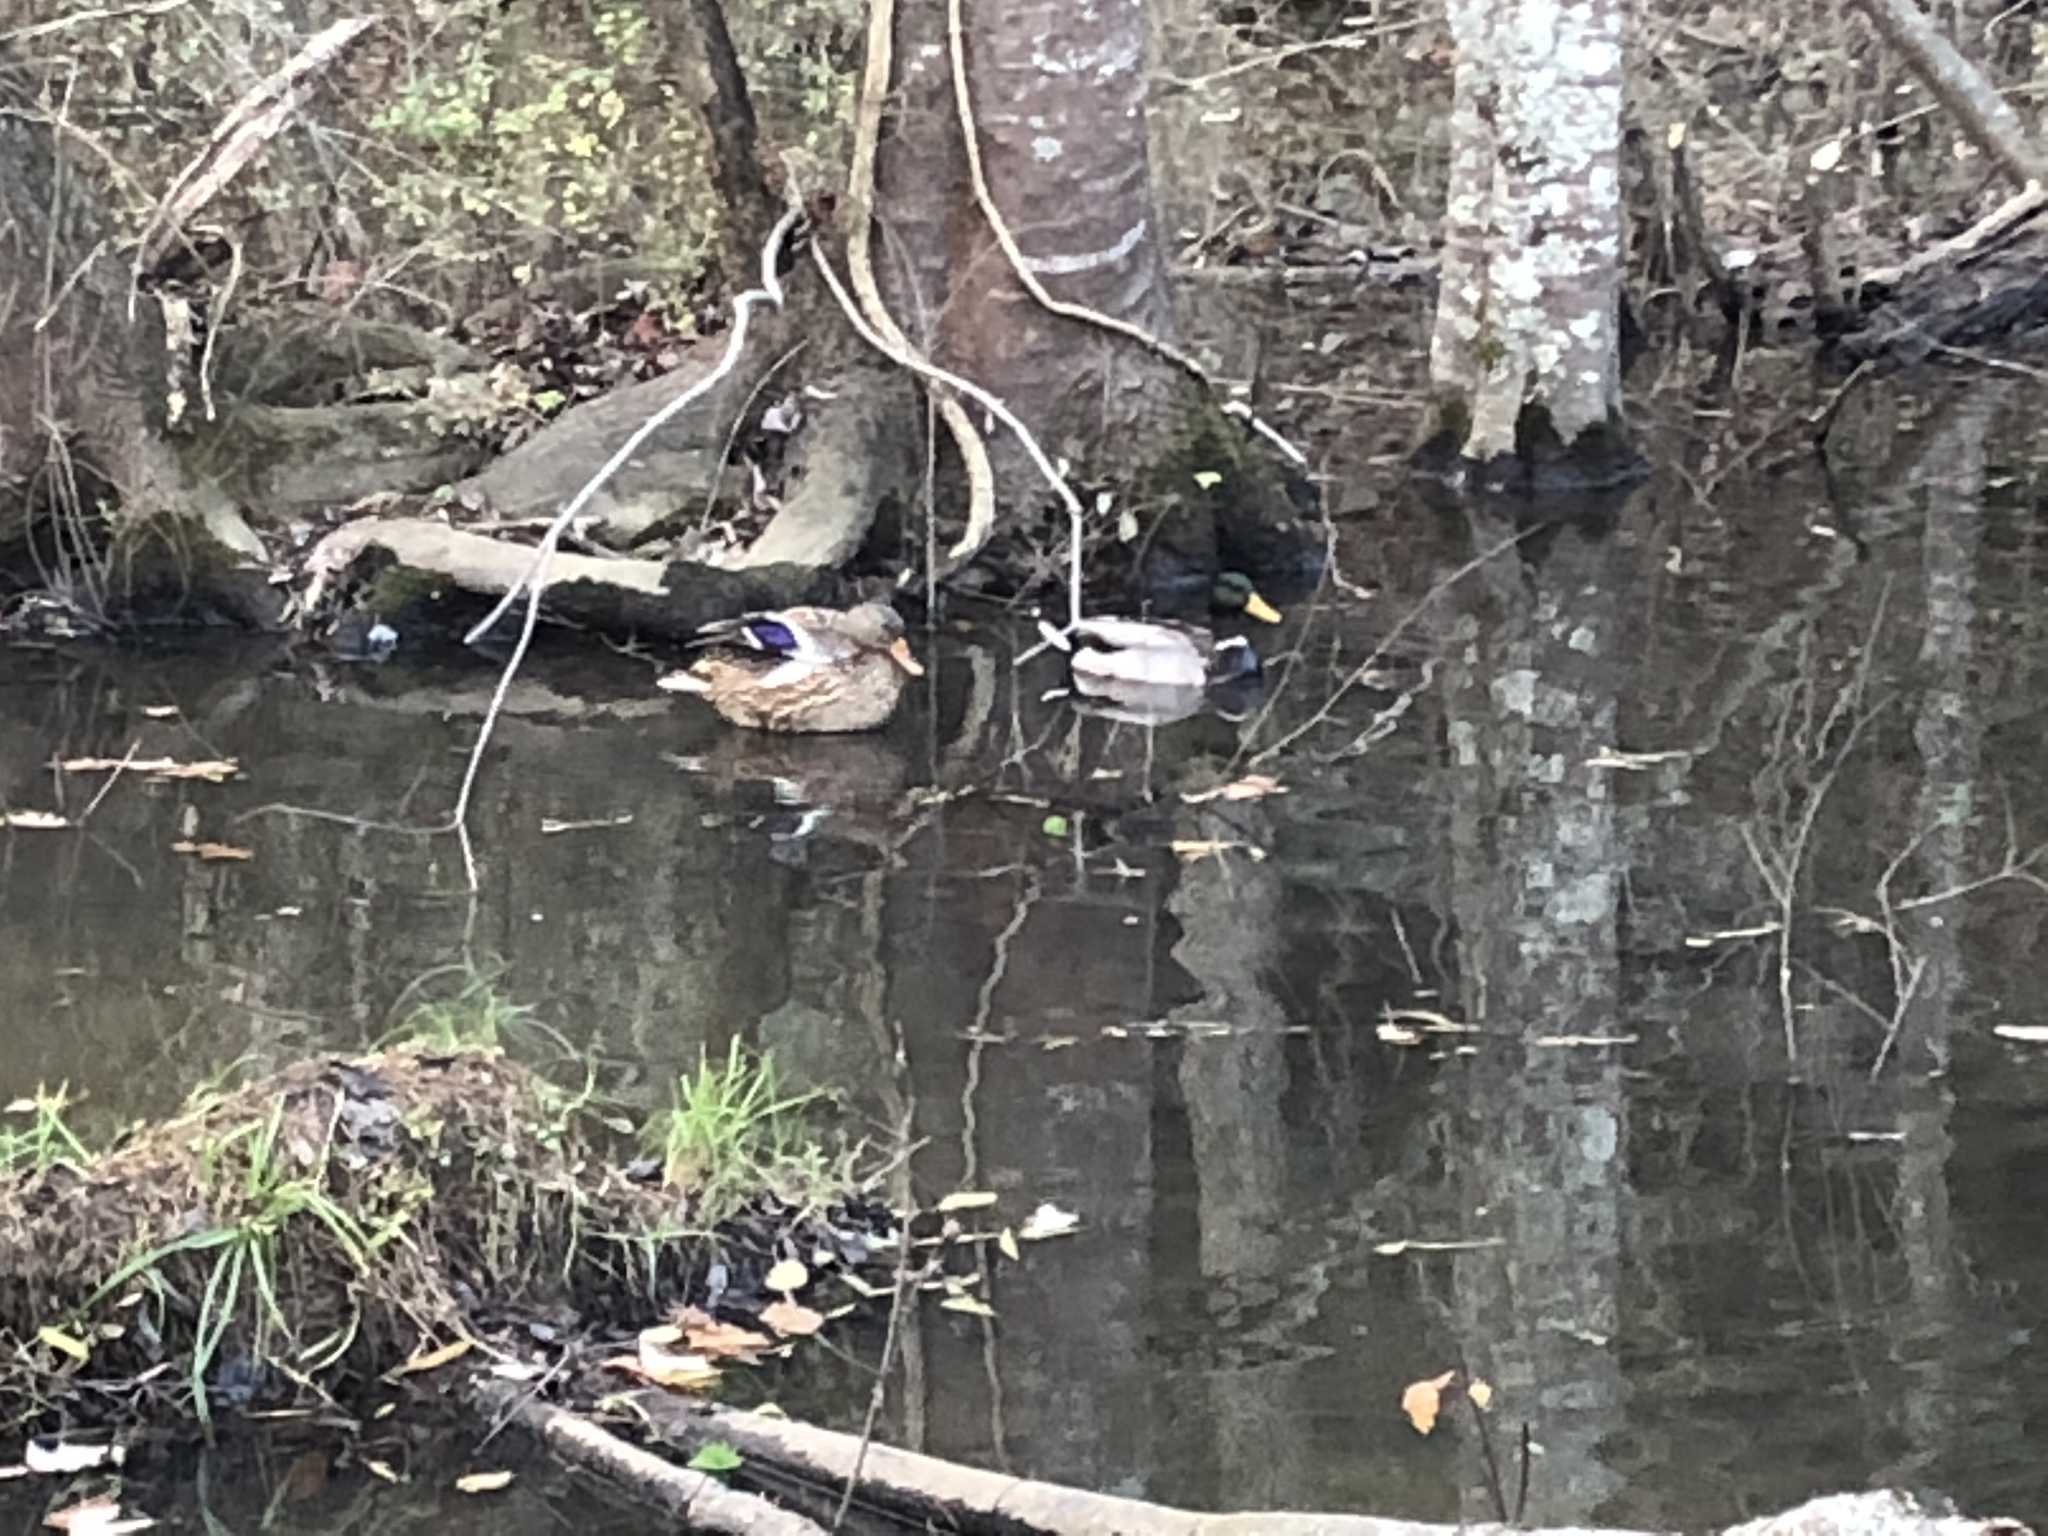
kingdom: Animalia
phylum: Chordata
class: Aves
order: Anseriformes
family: Anatidae
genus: Anas
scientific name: Anas platyrhynchos
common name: Mallard
